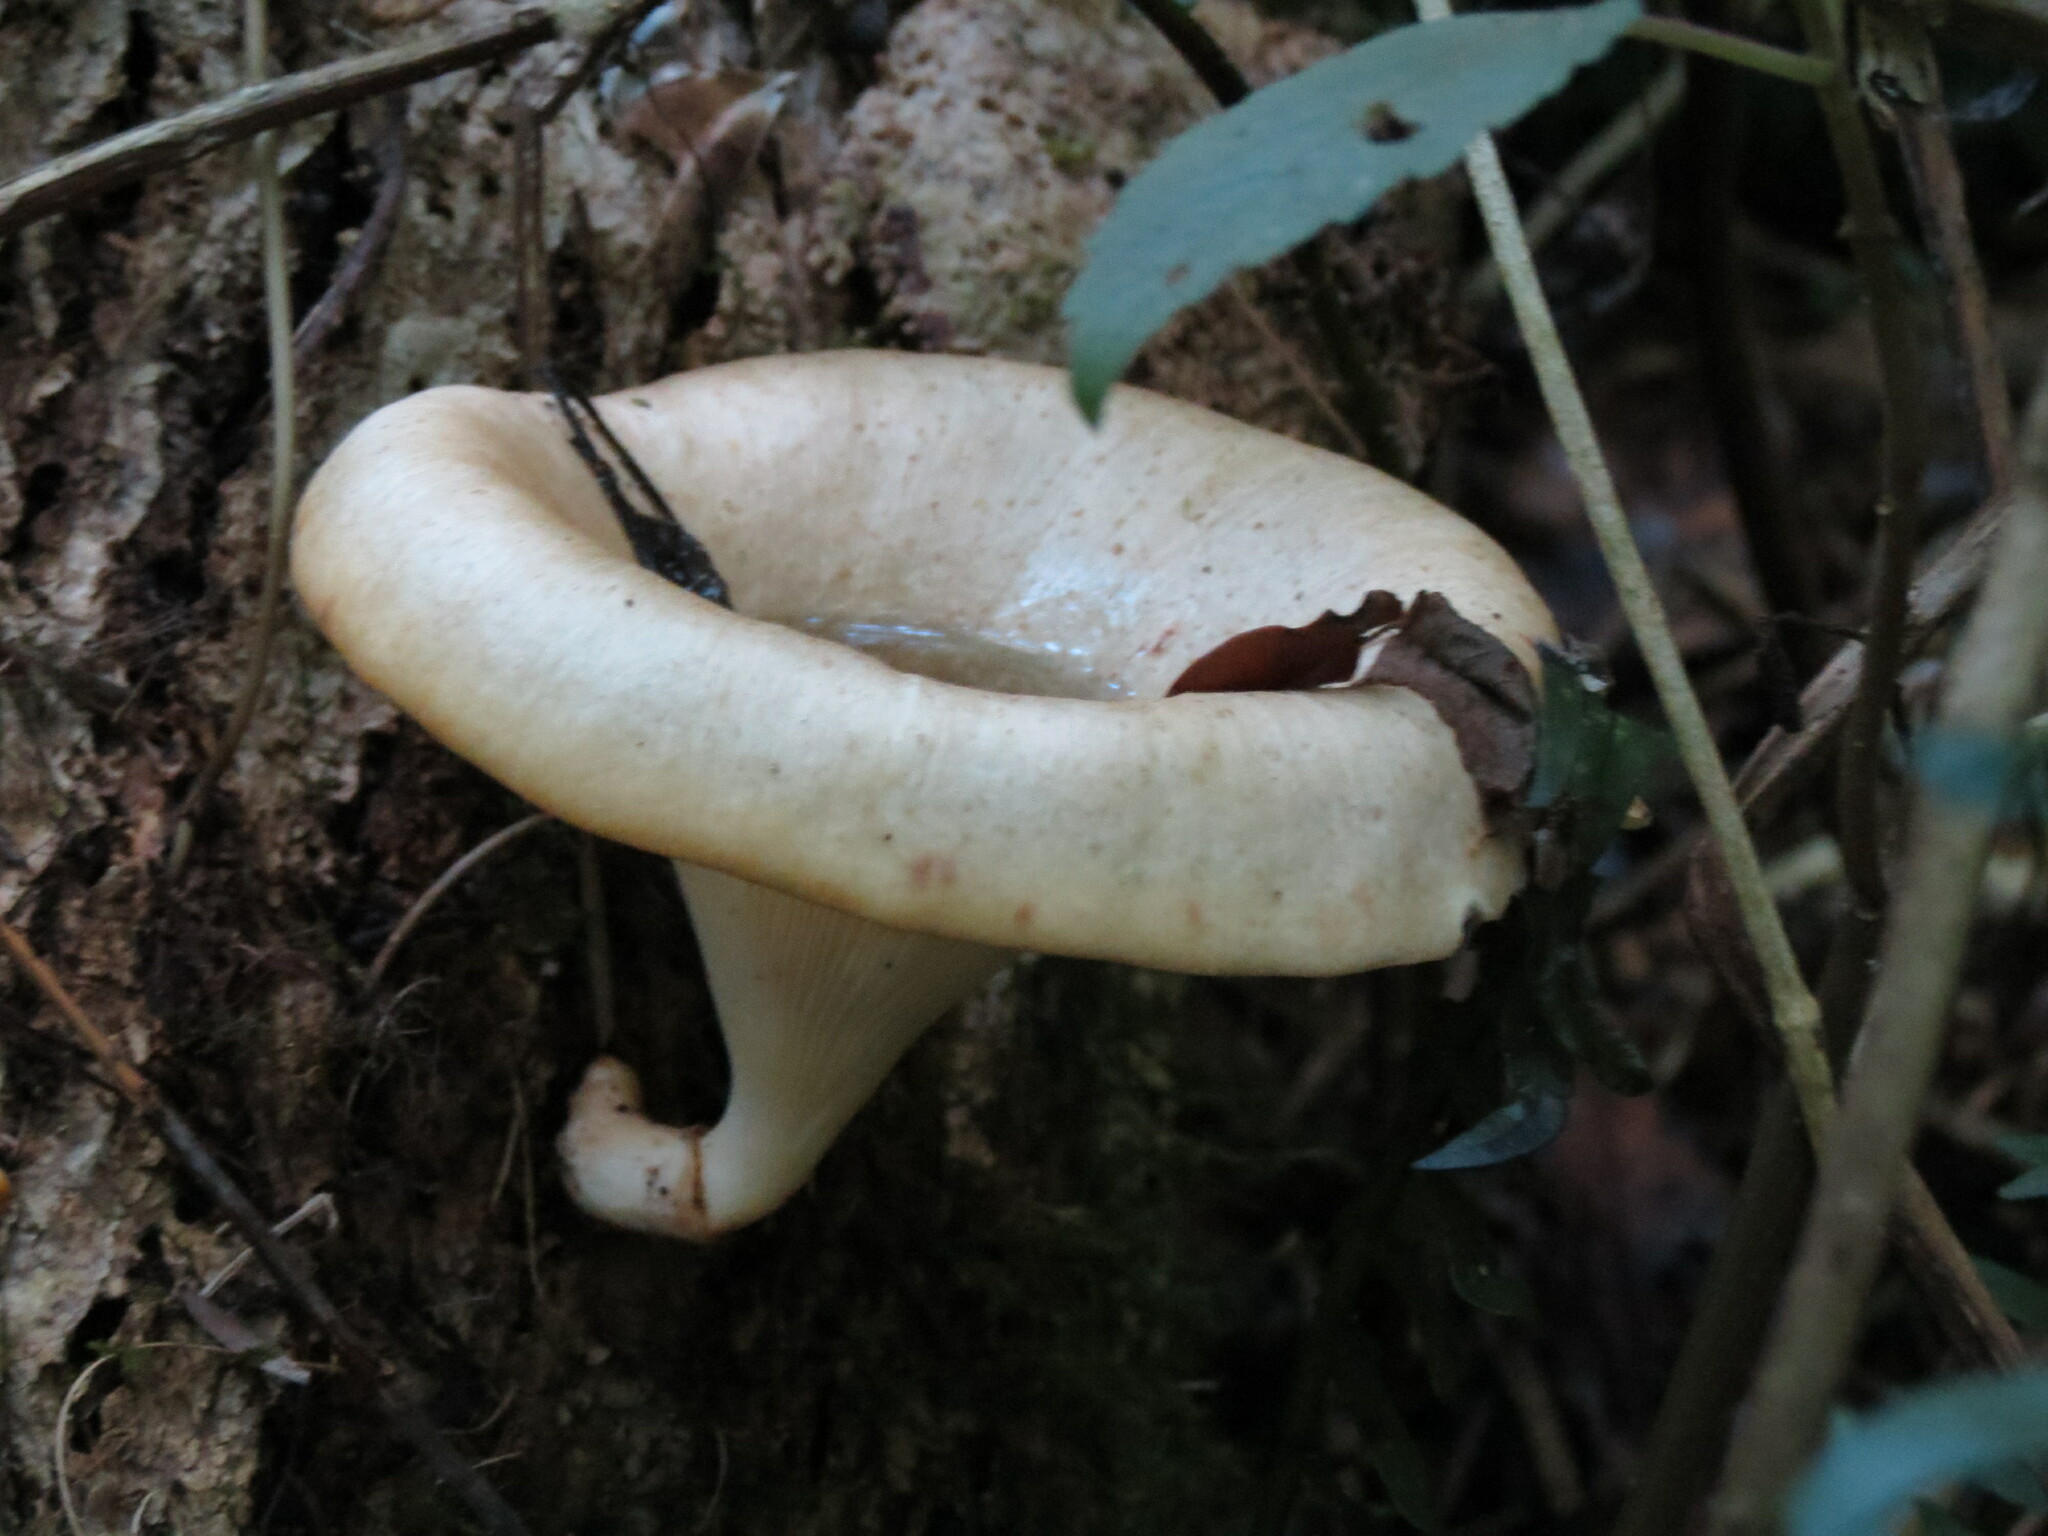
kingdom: Fungi
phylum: Basidiomycota
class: Agaricomycetes
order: Polyporales
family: Polyporaceae
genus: Lentinus
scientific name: Lentinus sajor-caju
